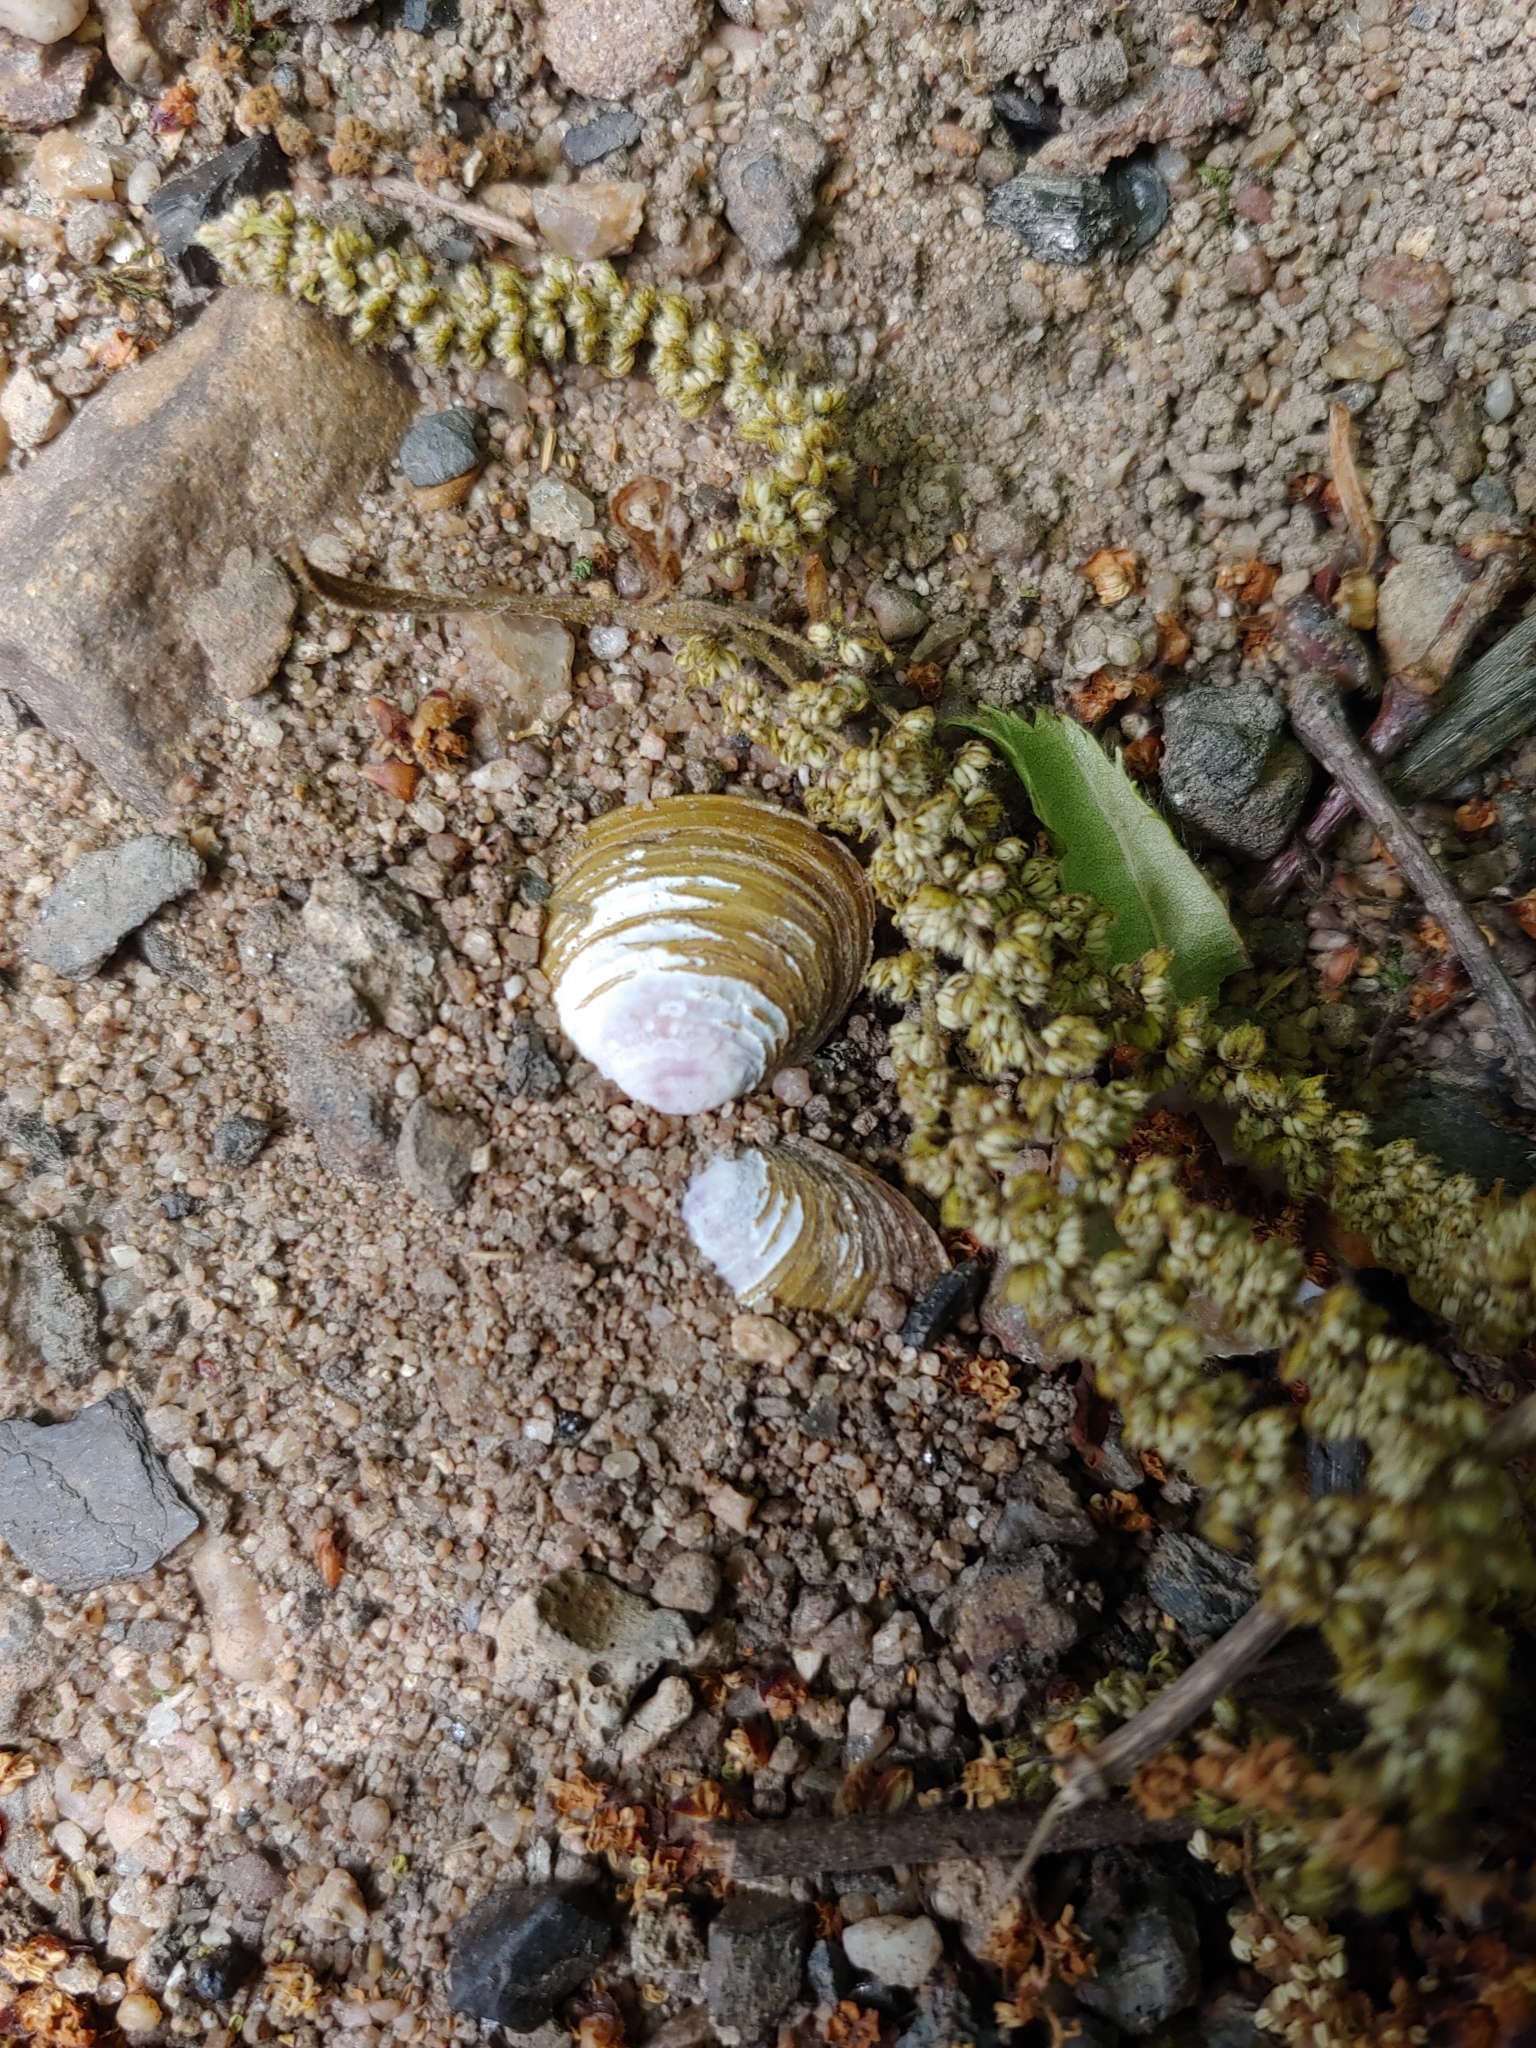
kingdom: Animalia
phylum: Mollusca
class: Bivalvia
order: Venerida
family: Cyrenidae
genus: Corbicula
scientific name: Corbicula fluminea
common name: Asian clam
